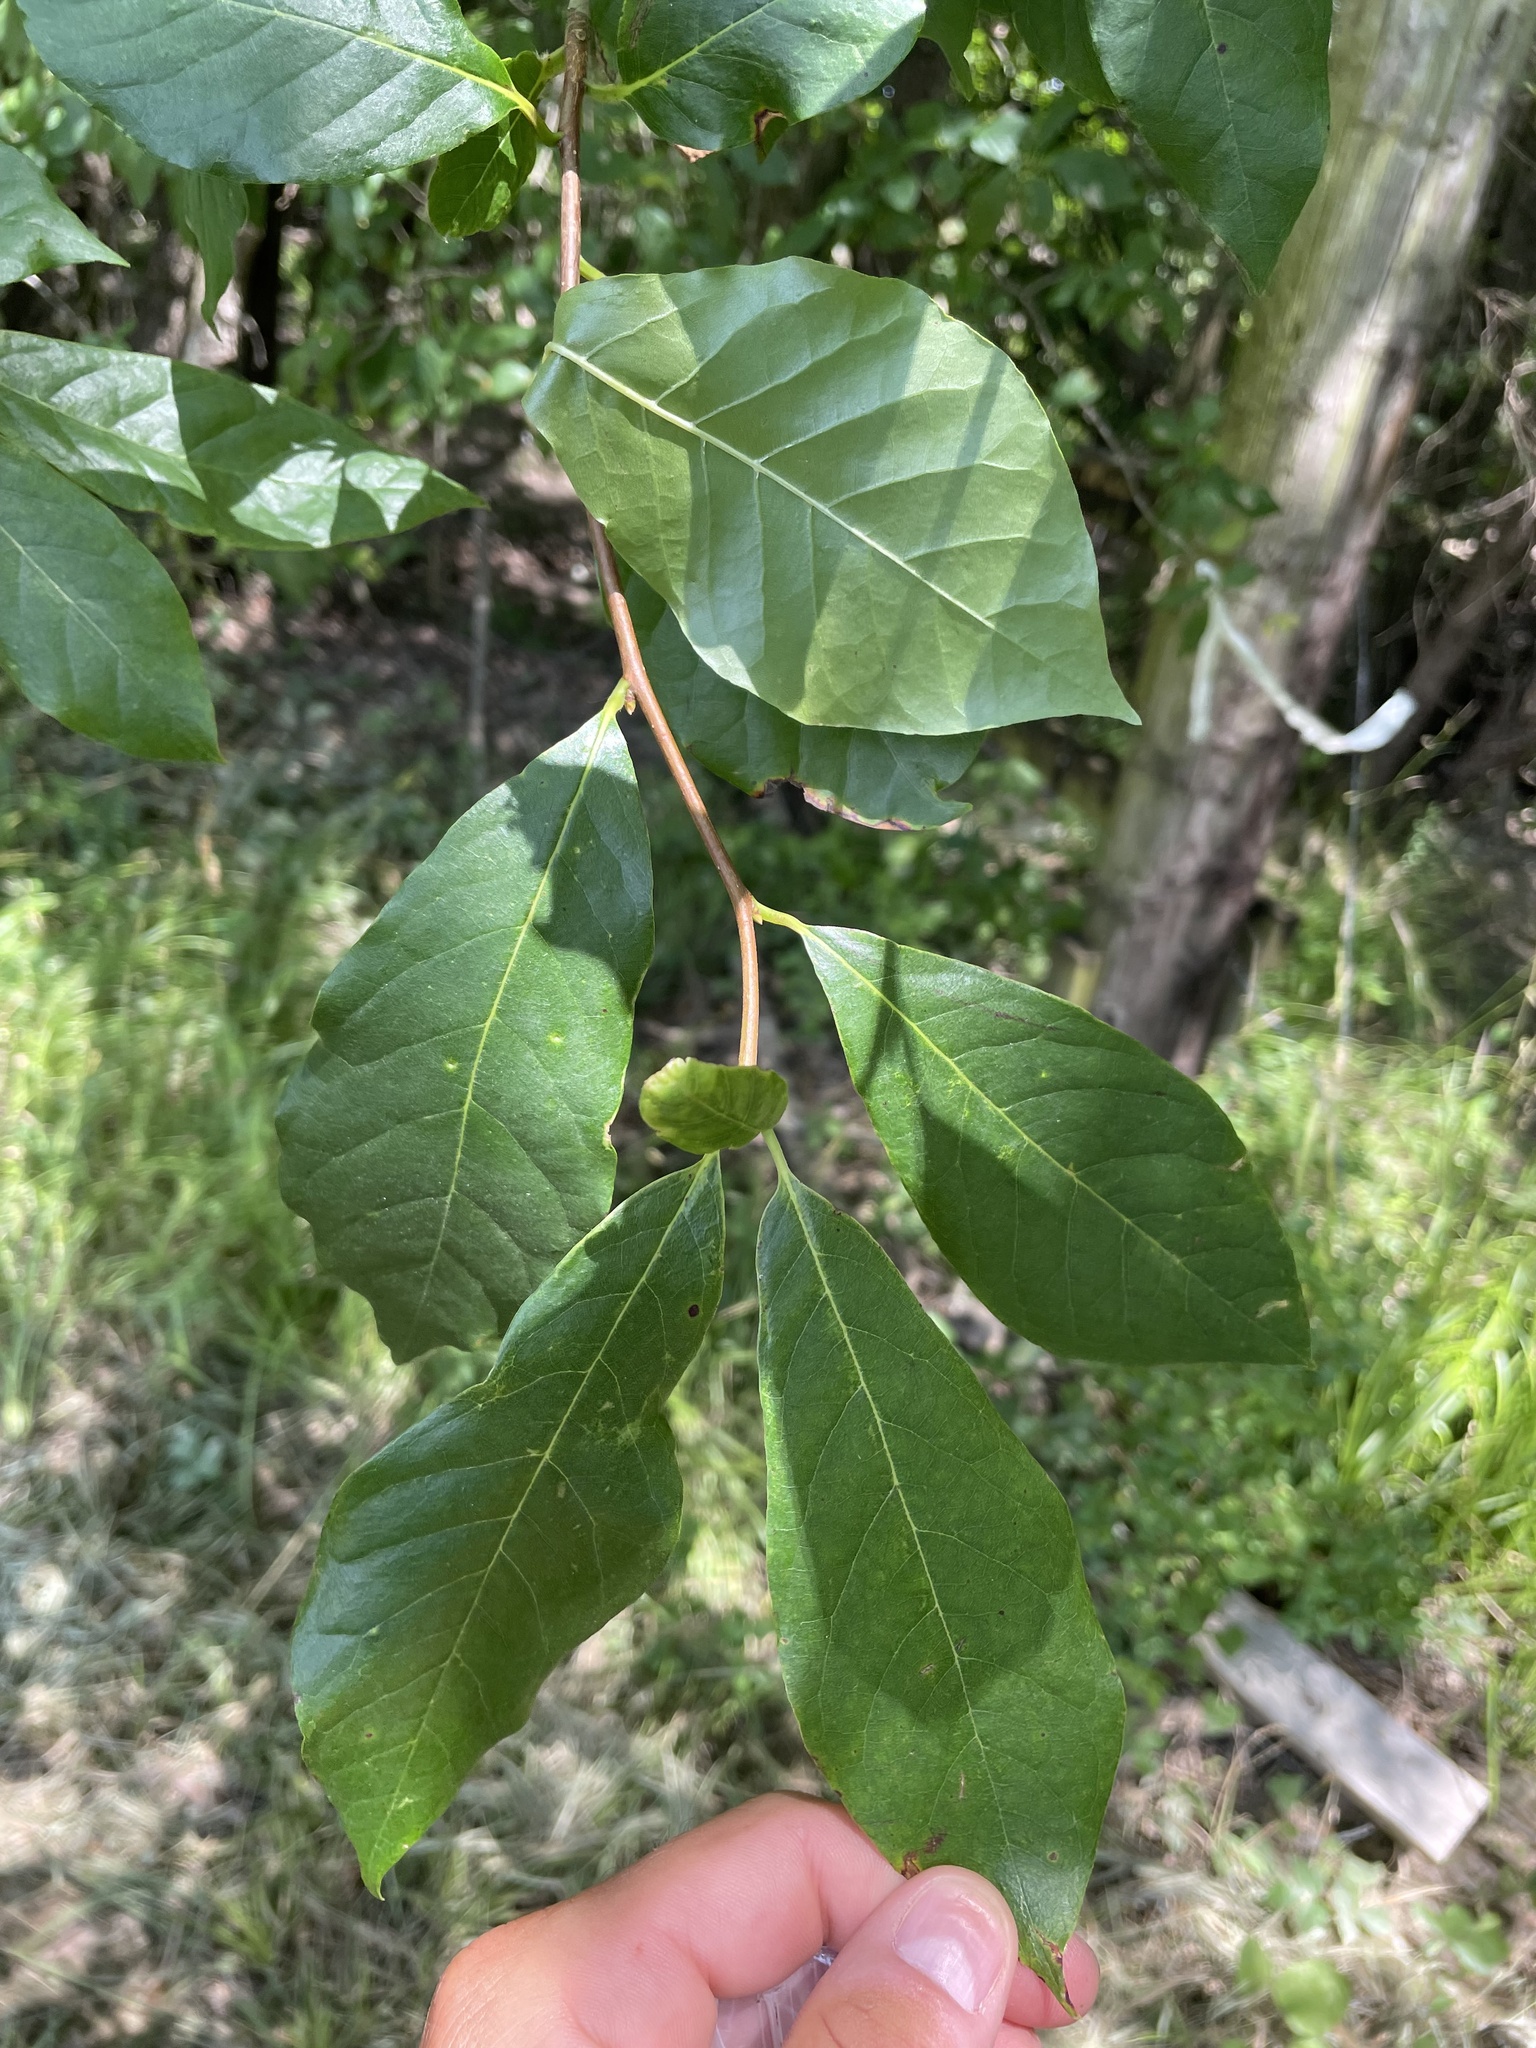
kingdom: Plantae
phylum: Tracheophyta
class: Magnoliopsida
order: Cornales
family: Nyssaceae
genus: Nyssa
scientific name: Nyssa sylvatica
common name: Black tupelo
